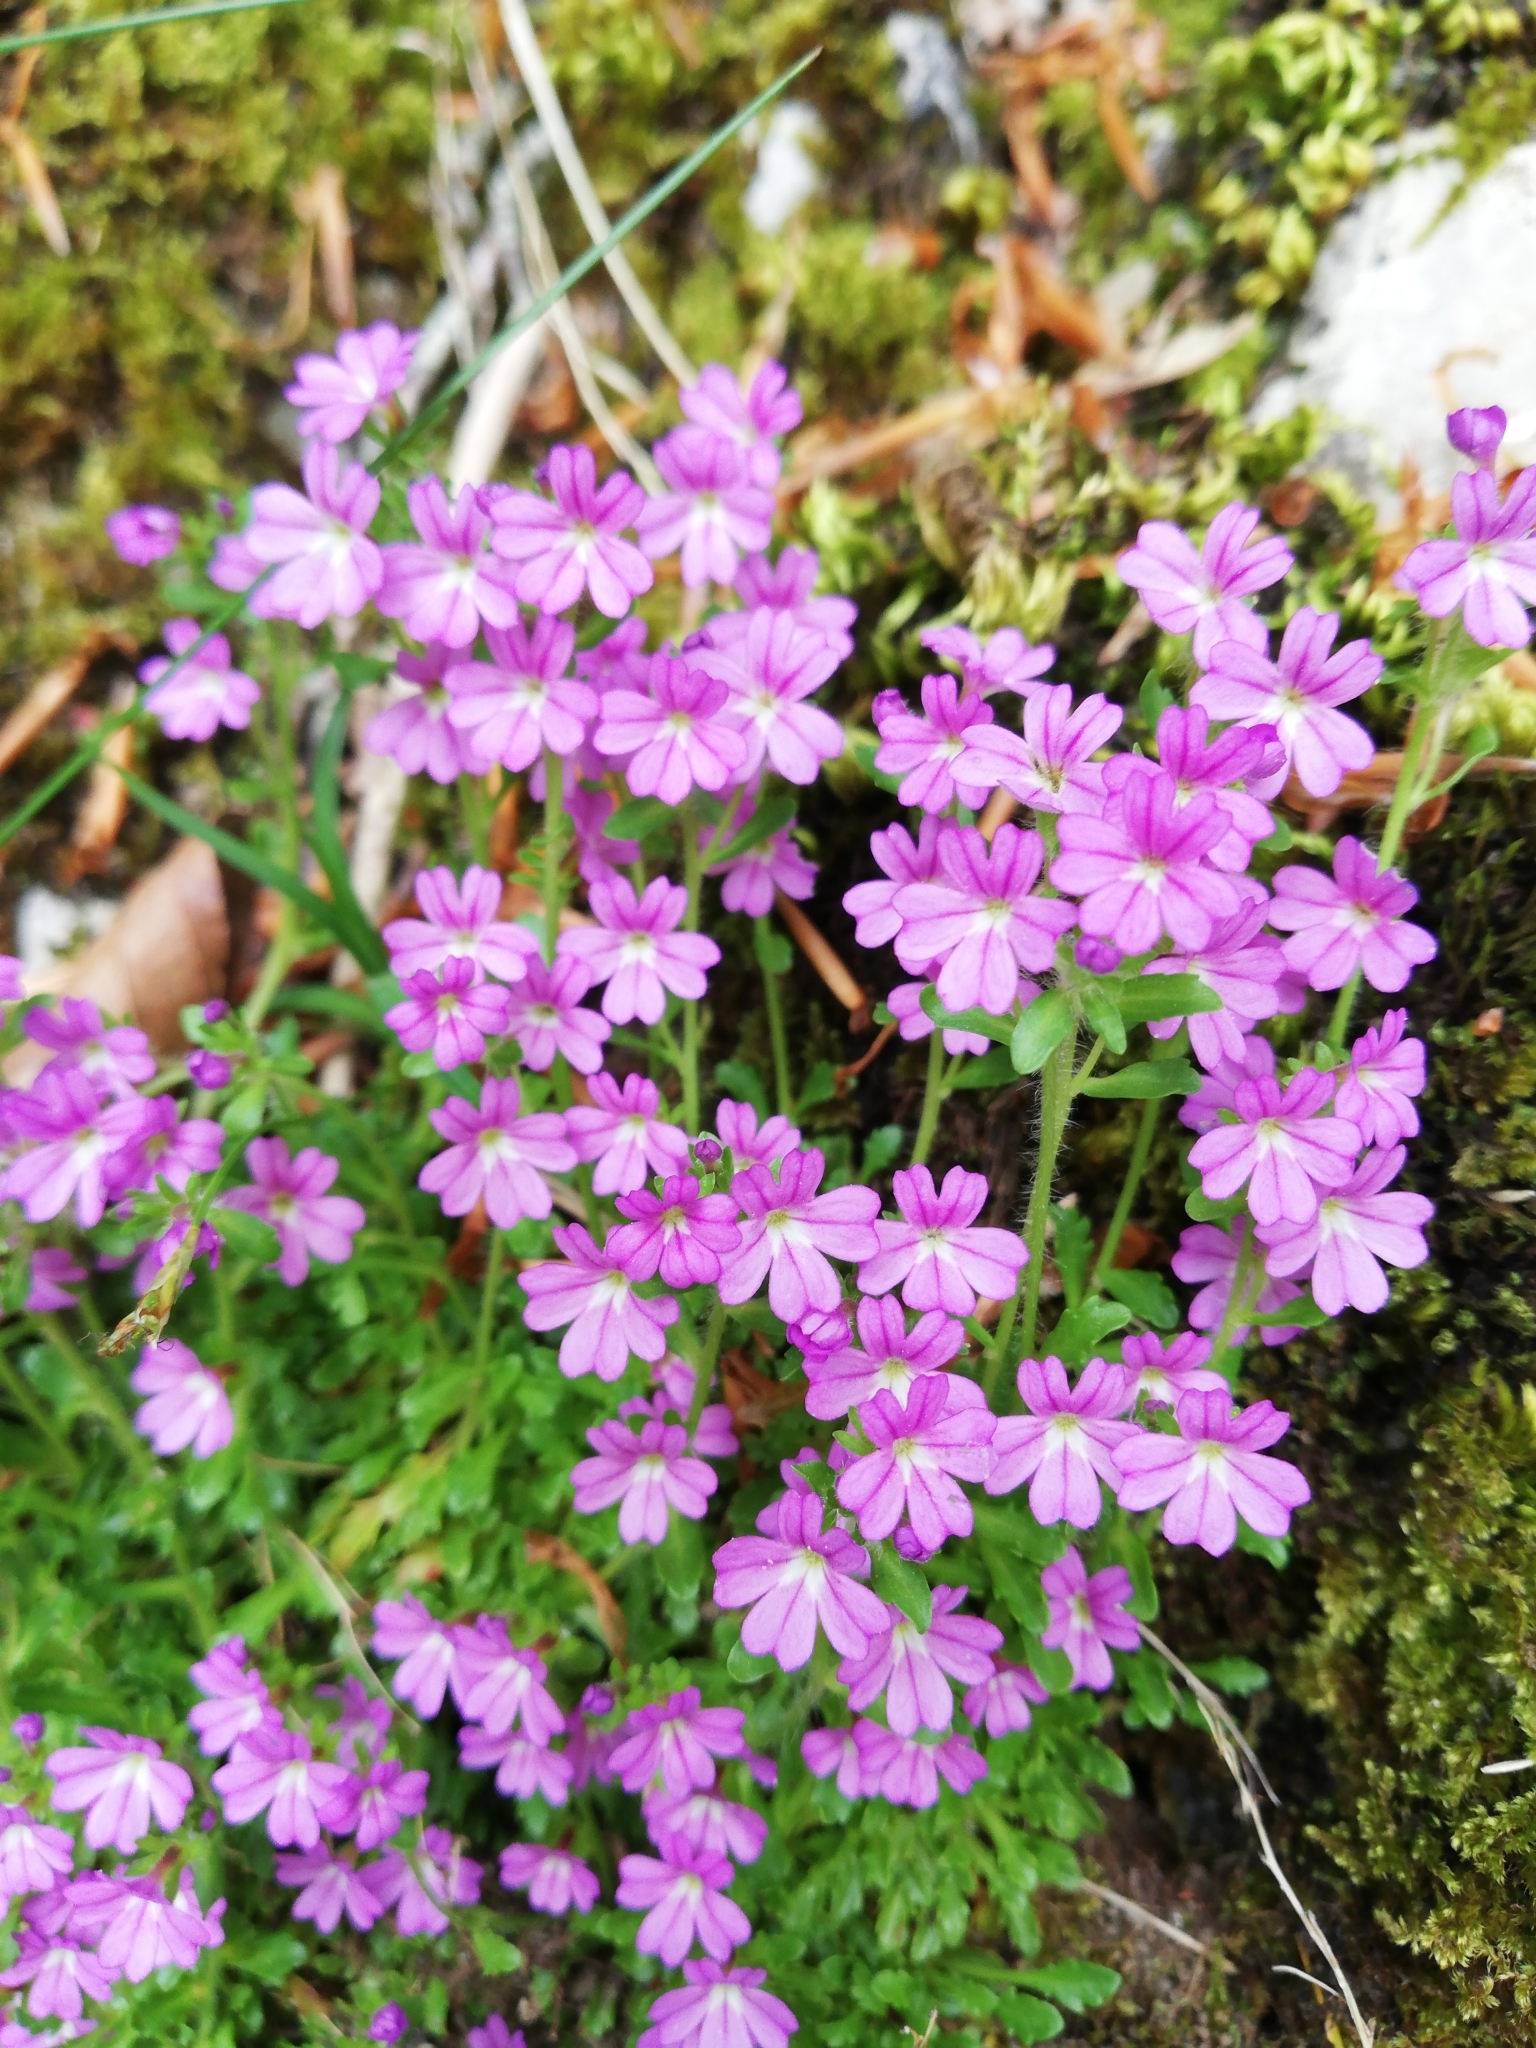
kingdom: Plantae
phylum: Tracheophyta
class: Magnoliopsida
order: Lamiales
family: Plantaginaceae
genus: Erinus
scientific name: Erinus alpinus
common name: Fairy foxglove
